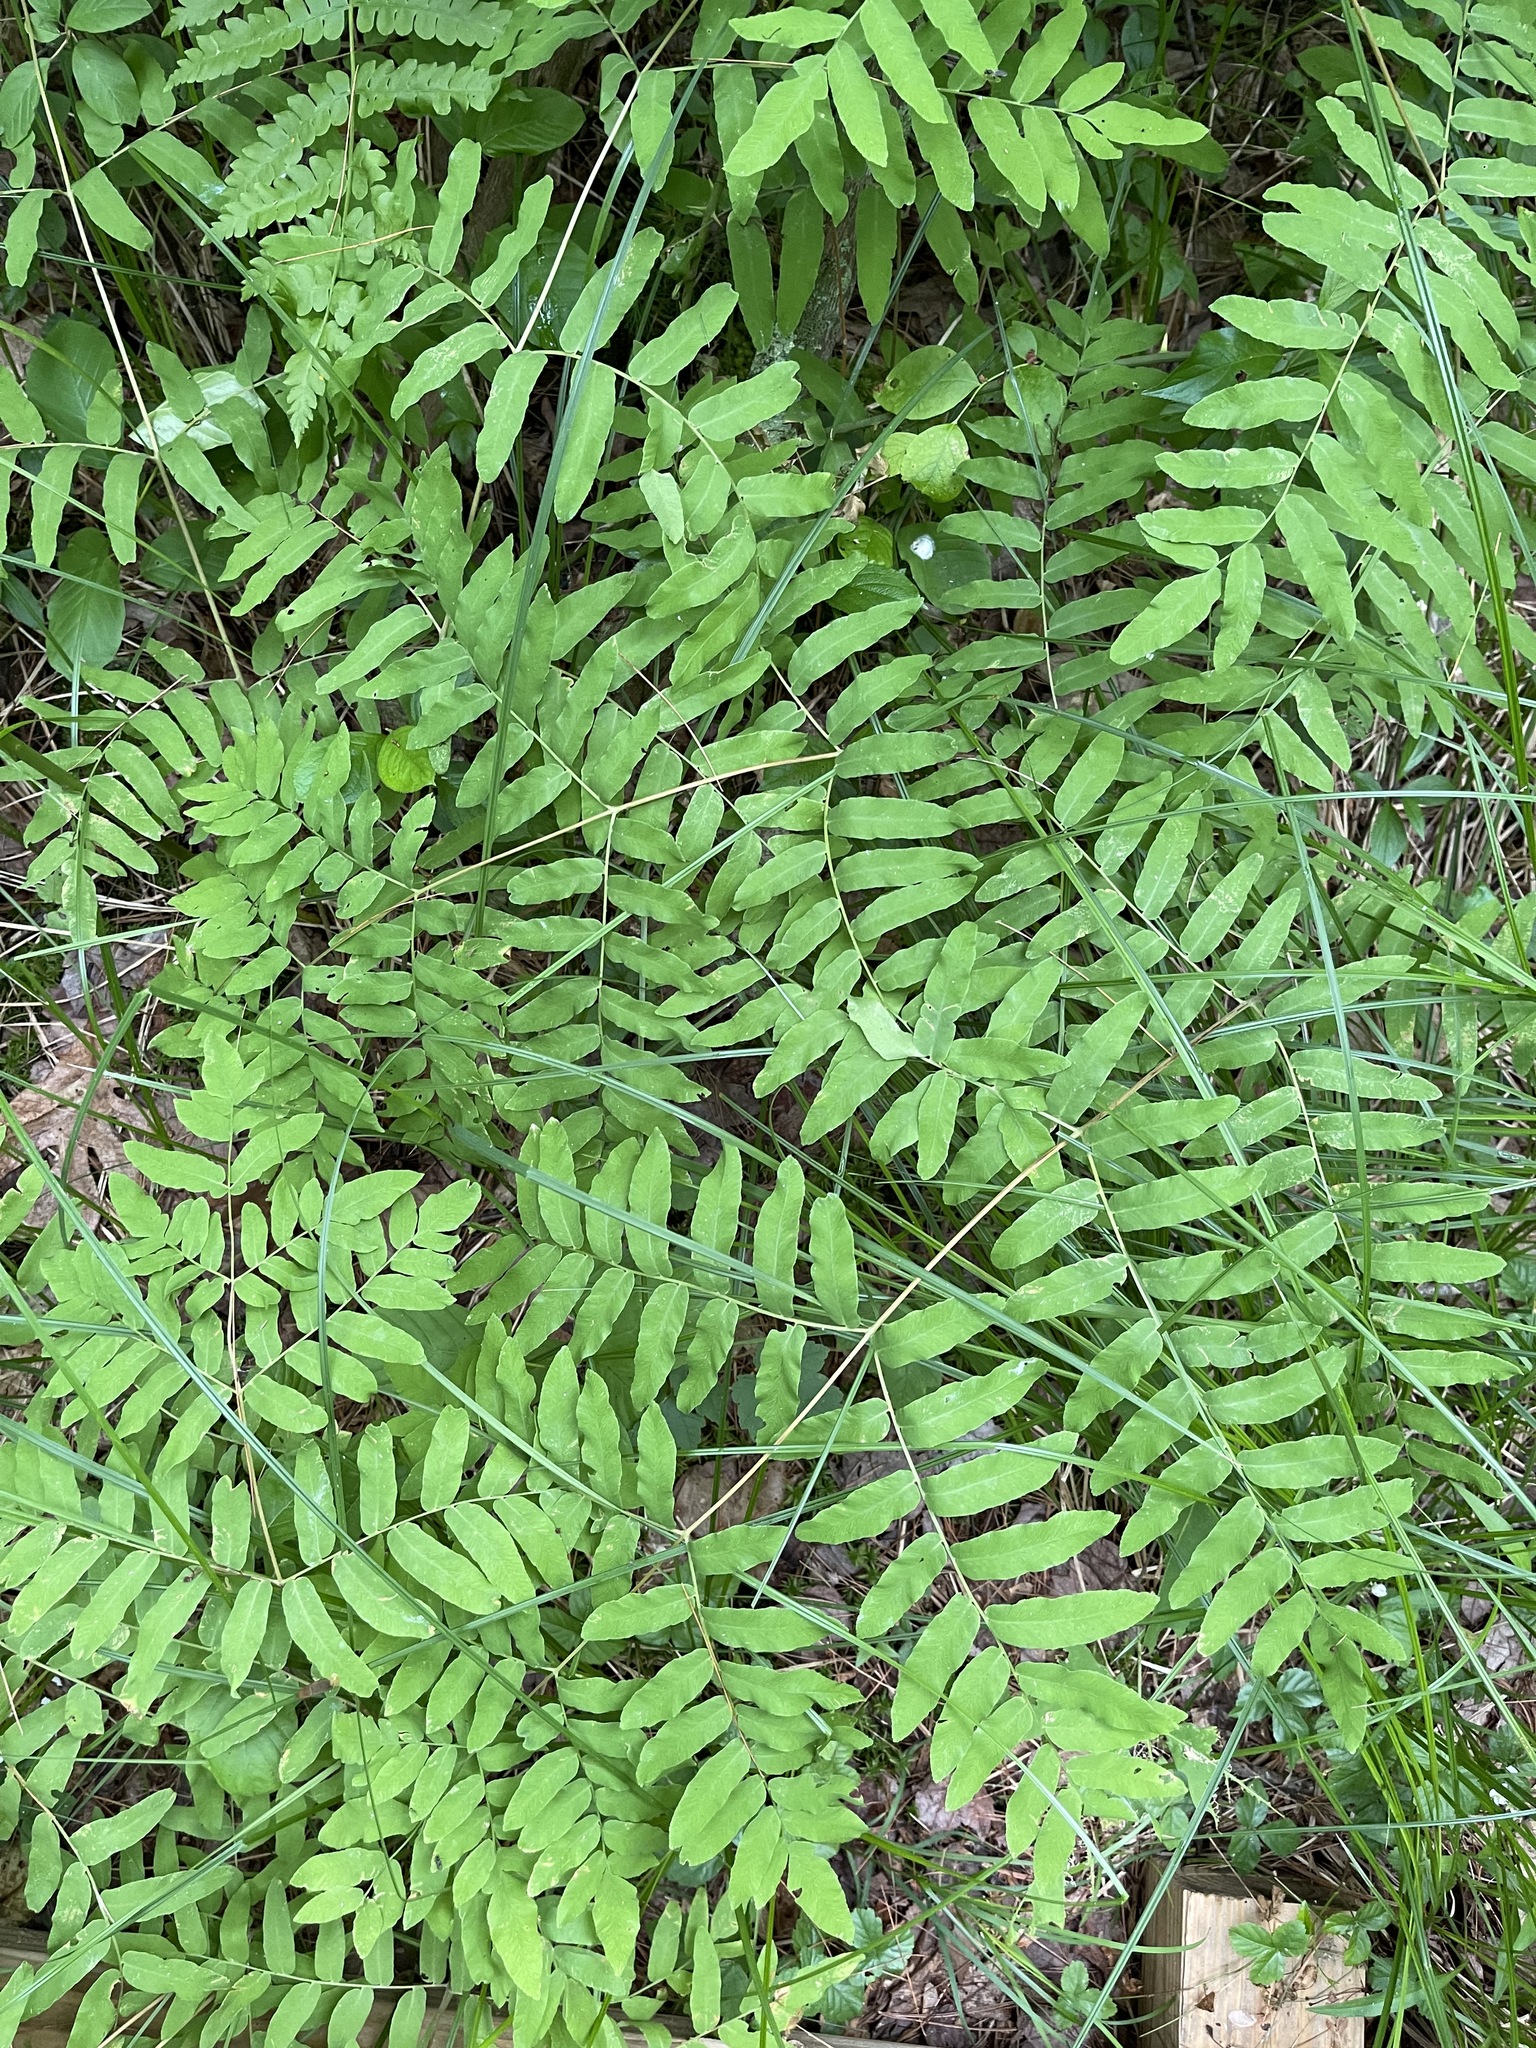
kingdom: Plantae
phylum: Tracheophyta
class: Polypodiopsida
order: Osmundales
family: Osmundaceae
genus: Osmunda
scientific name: Osmunda spectabilis
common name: American royal fern
